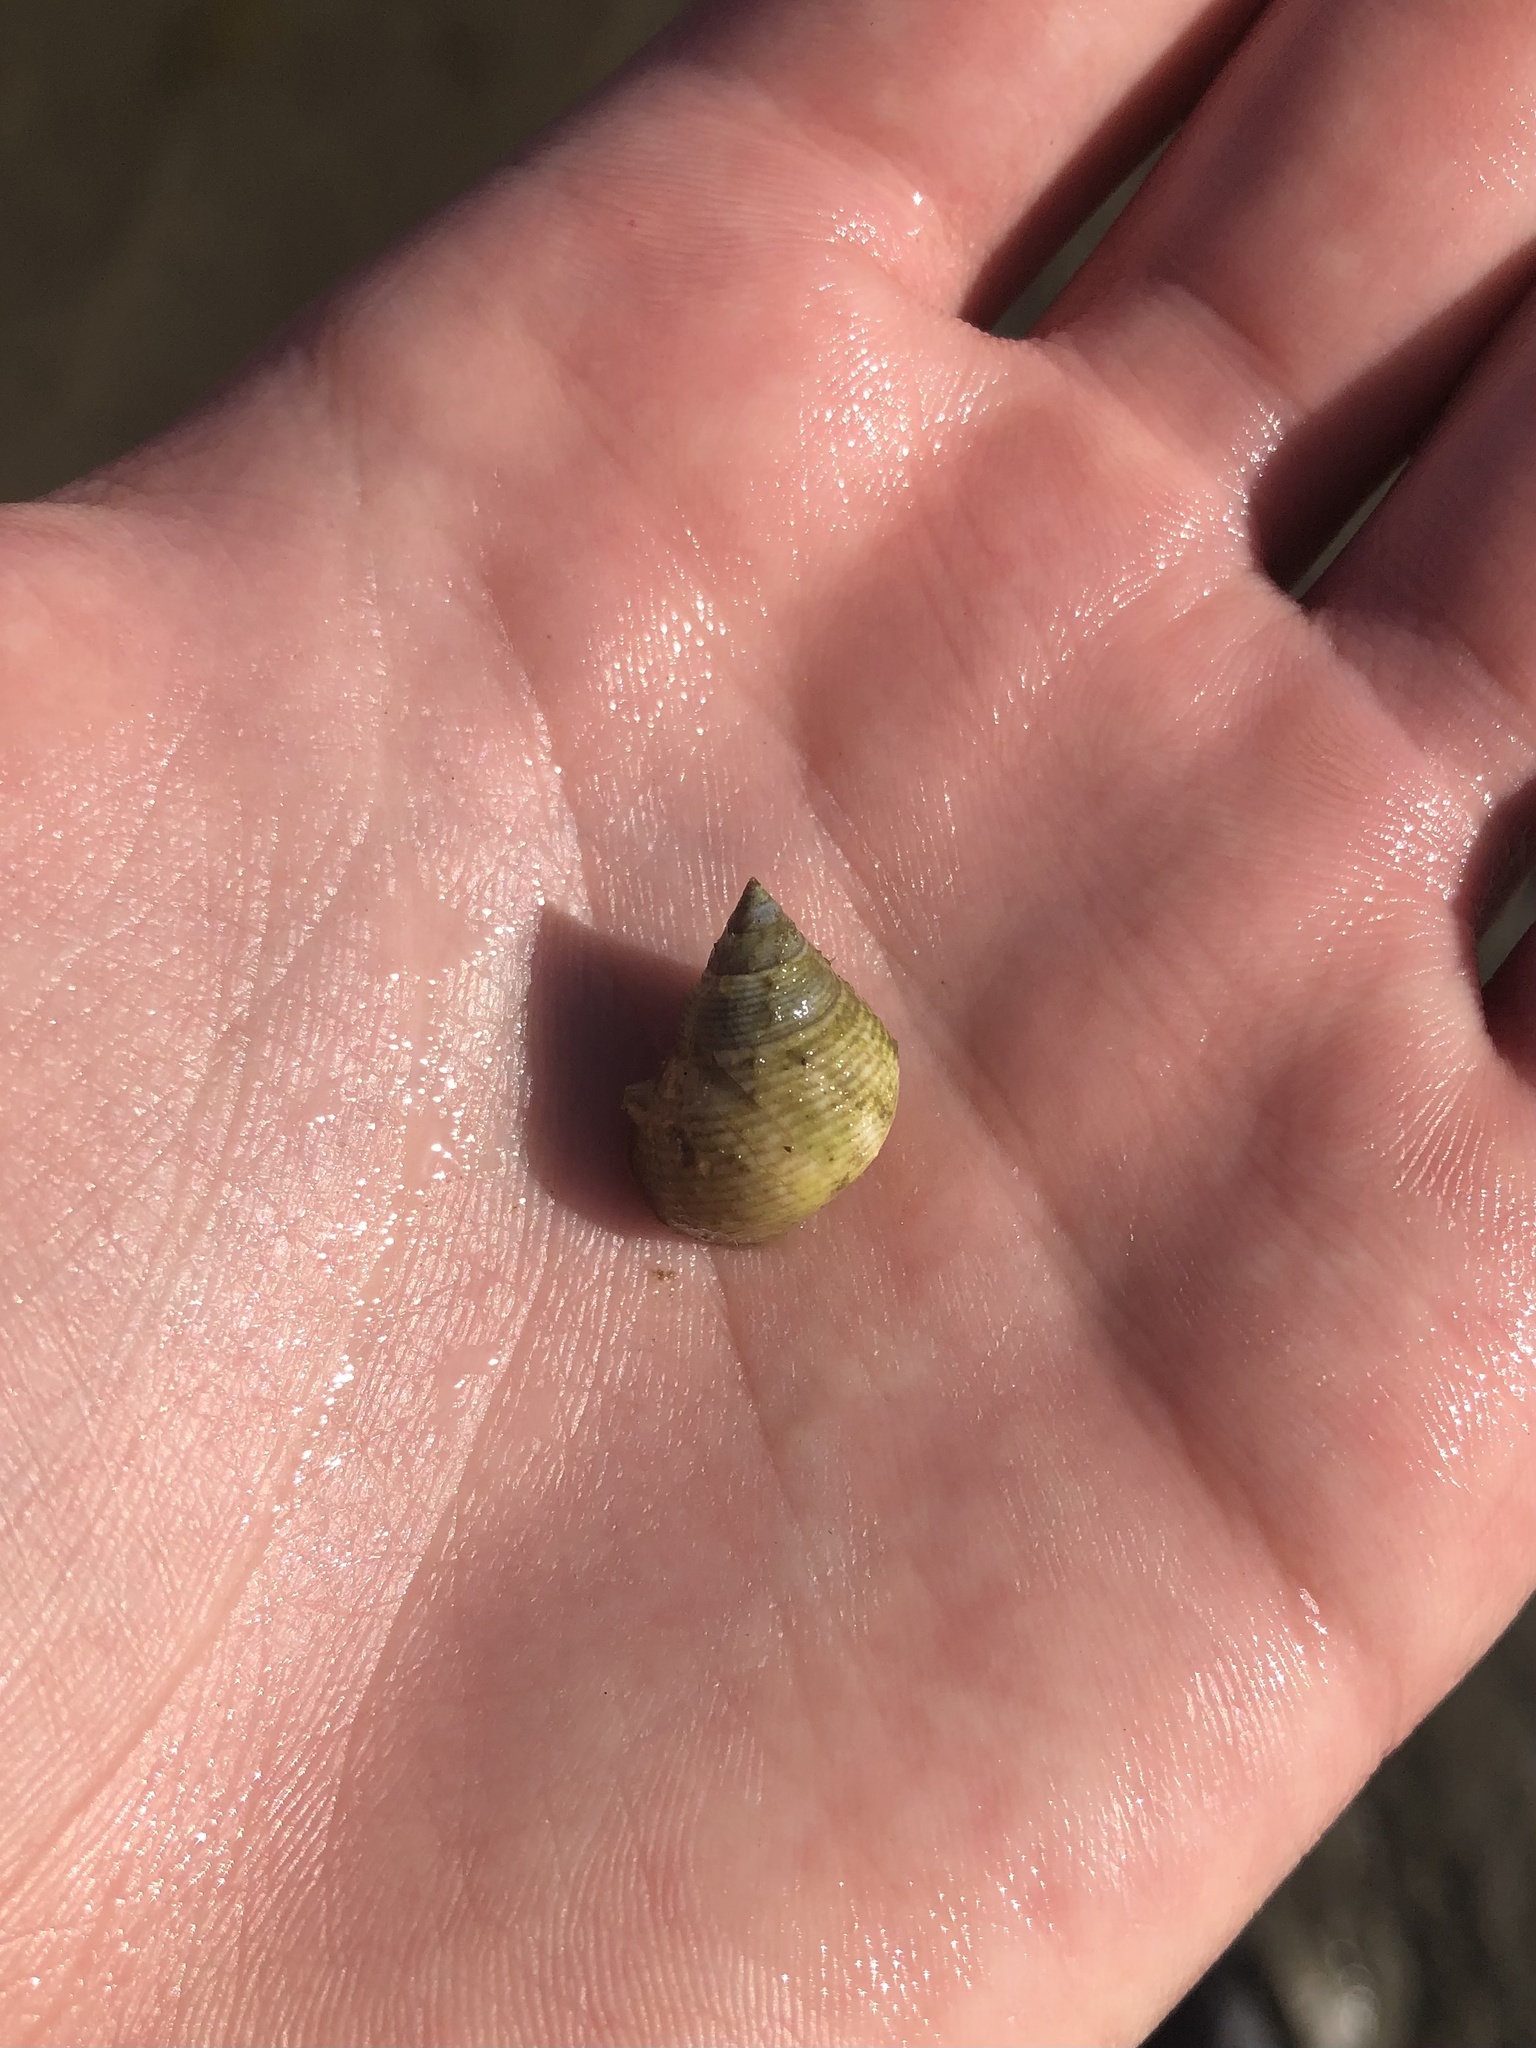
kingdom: Animalia
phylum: Mollusca
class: Gastropoda
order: Littorinimorpha
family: Littorinidae
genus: Littoraria
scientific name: Littoraria irrorata
